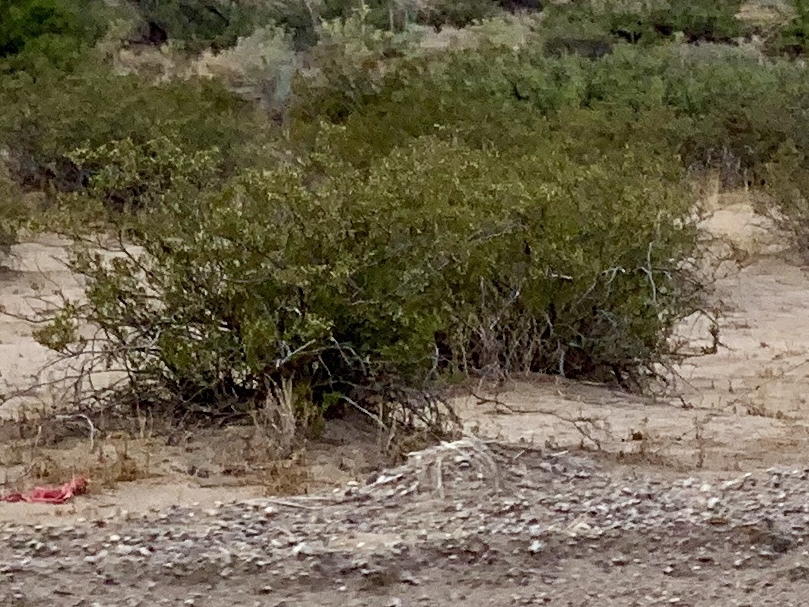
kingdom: Plantae
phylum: Tracheophyta
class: Magnoliopsida
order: Zygophyllales
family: Zygophyllaceae
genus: Larrea
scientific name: Larrea tridentata
